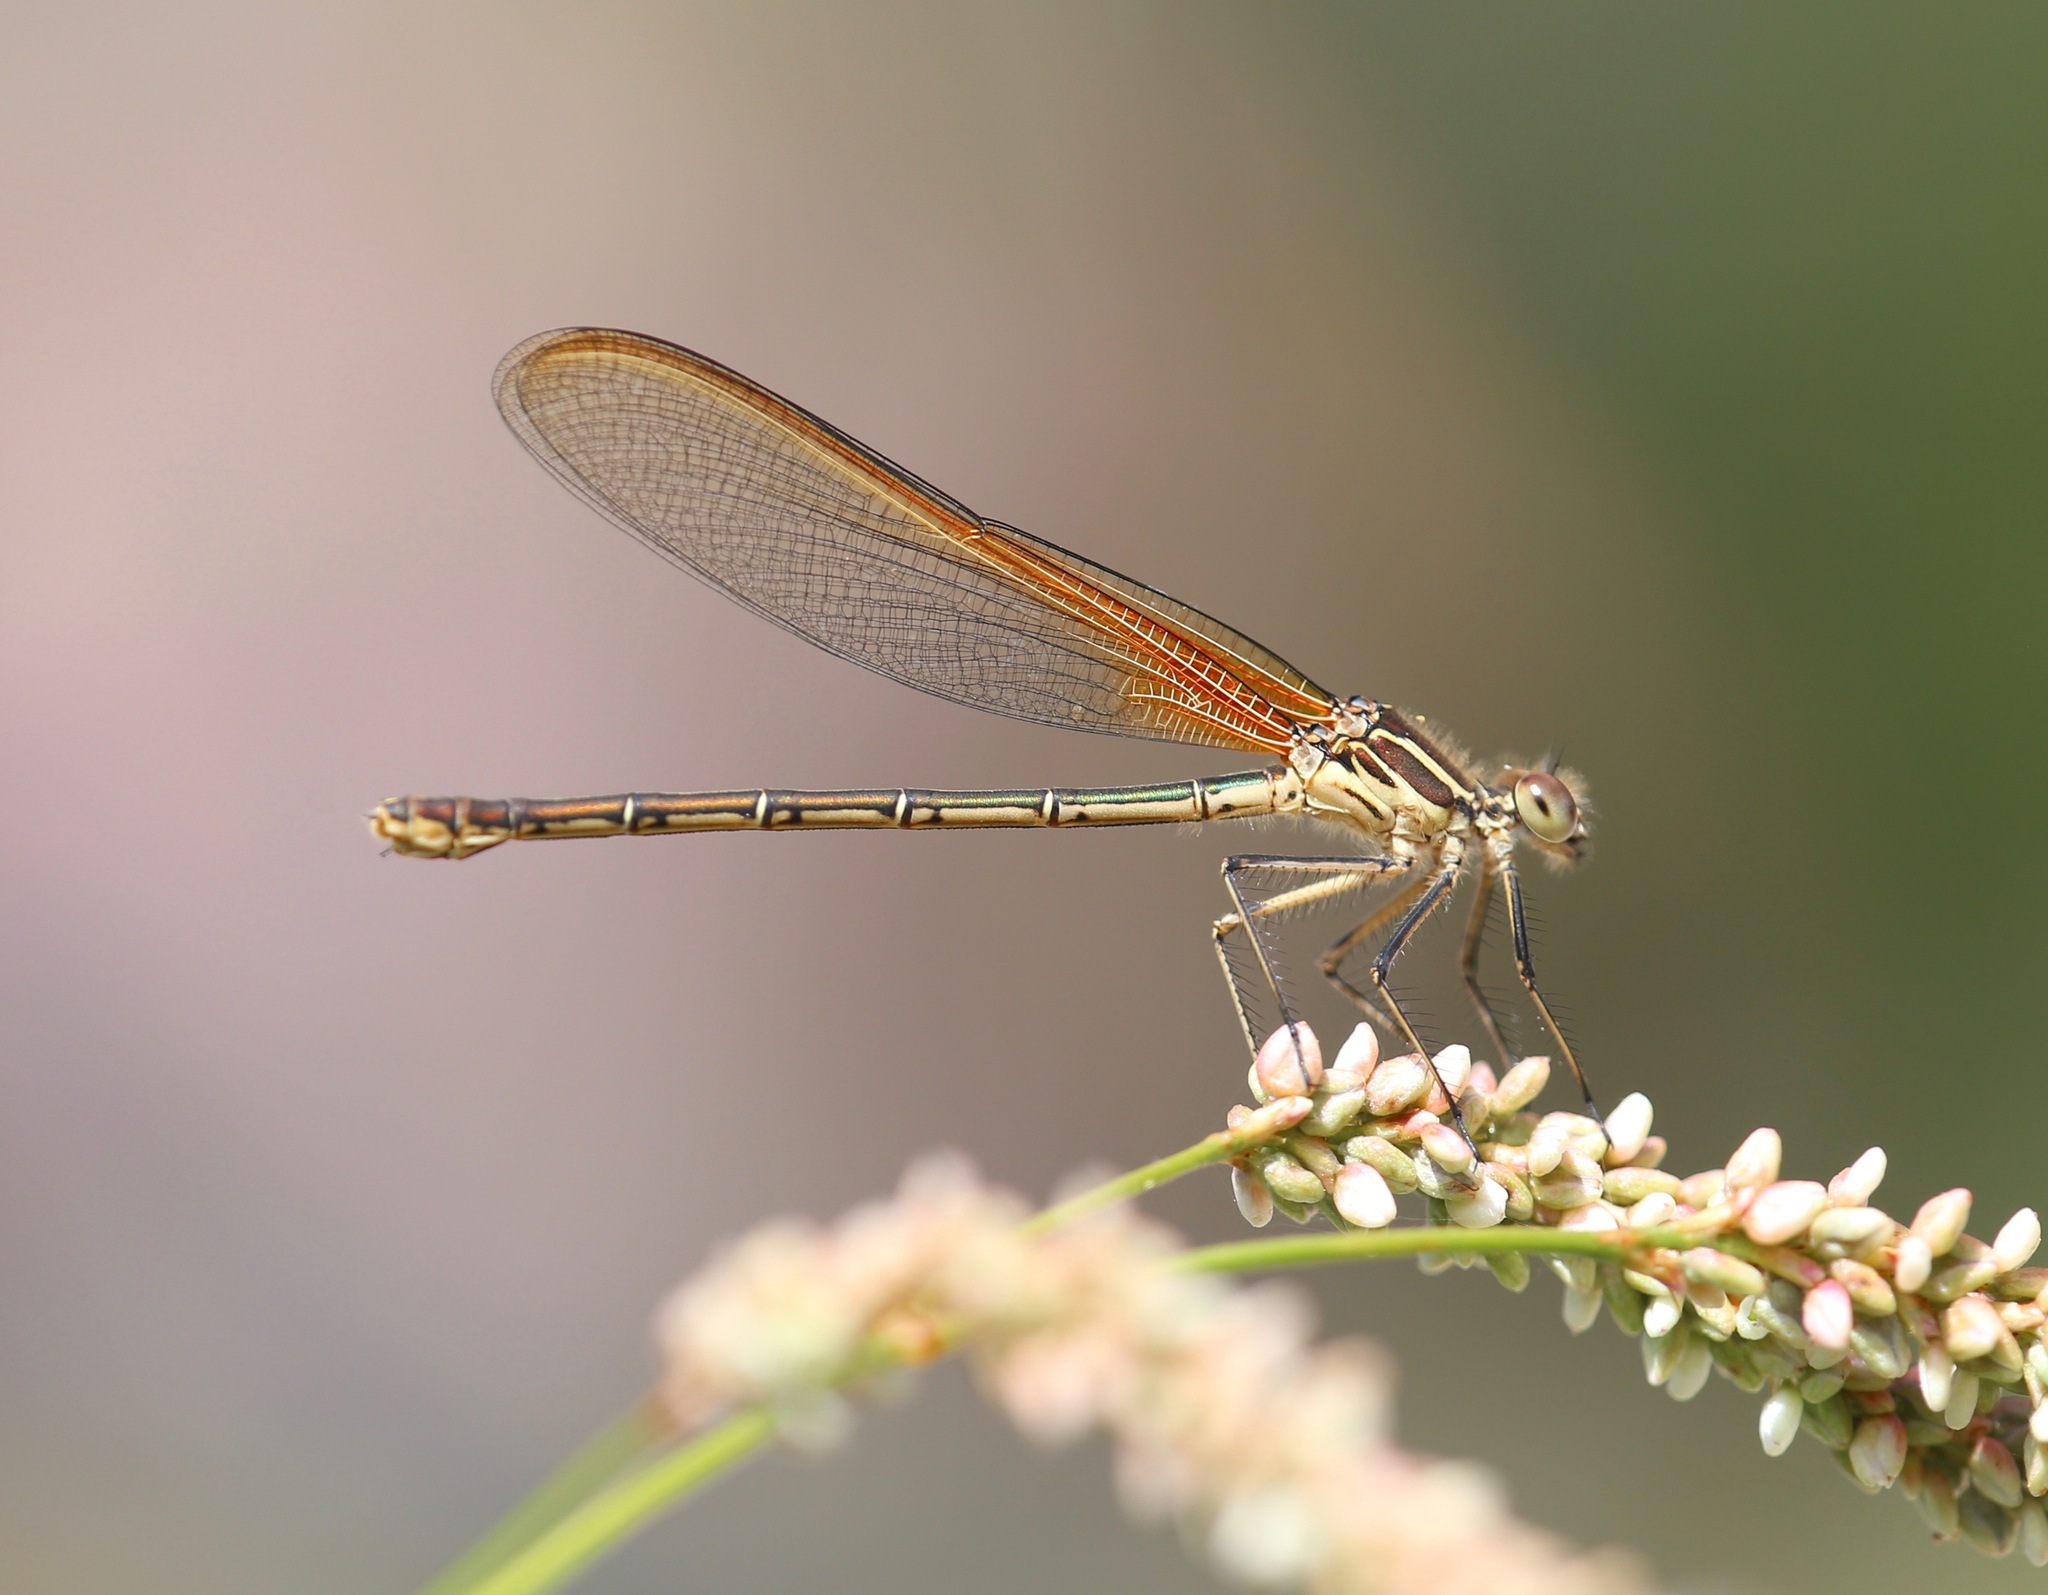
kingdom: Animalia
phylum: Arthropoda
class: Insecta
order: Odonata
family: Calopterygidae
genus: Hetaerina
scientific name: Hetaerina americana
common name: American rubyspot
